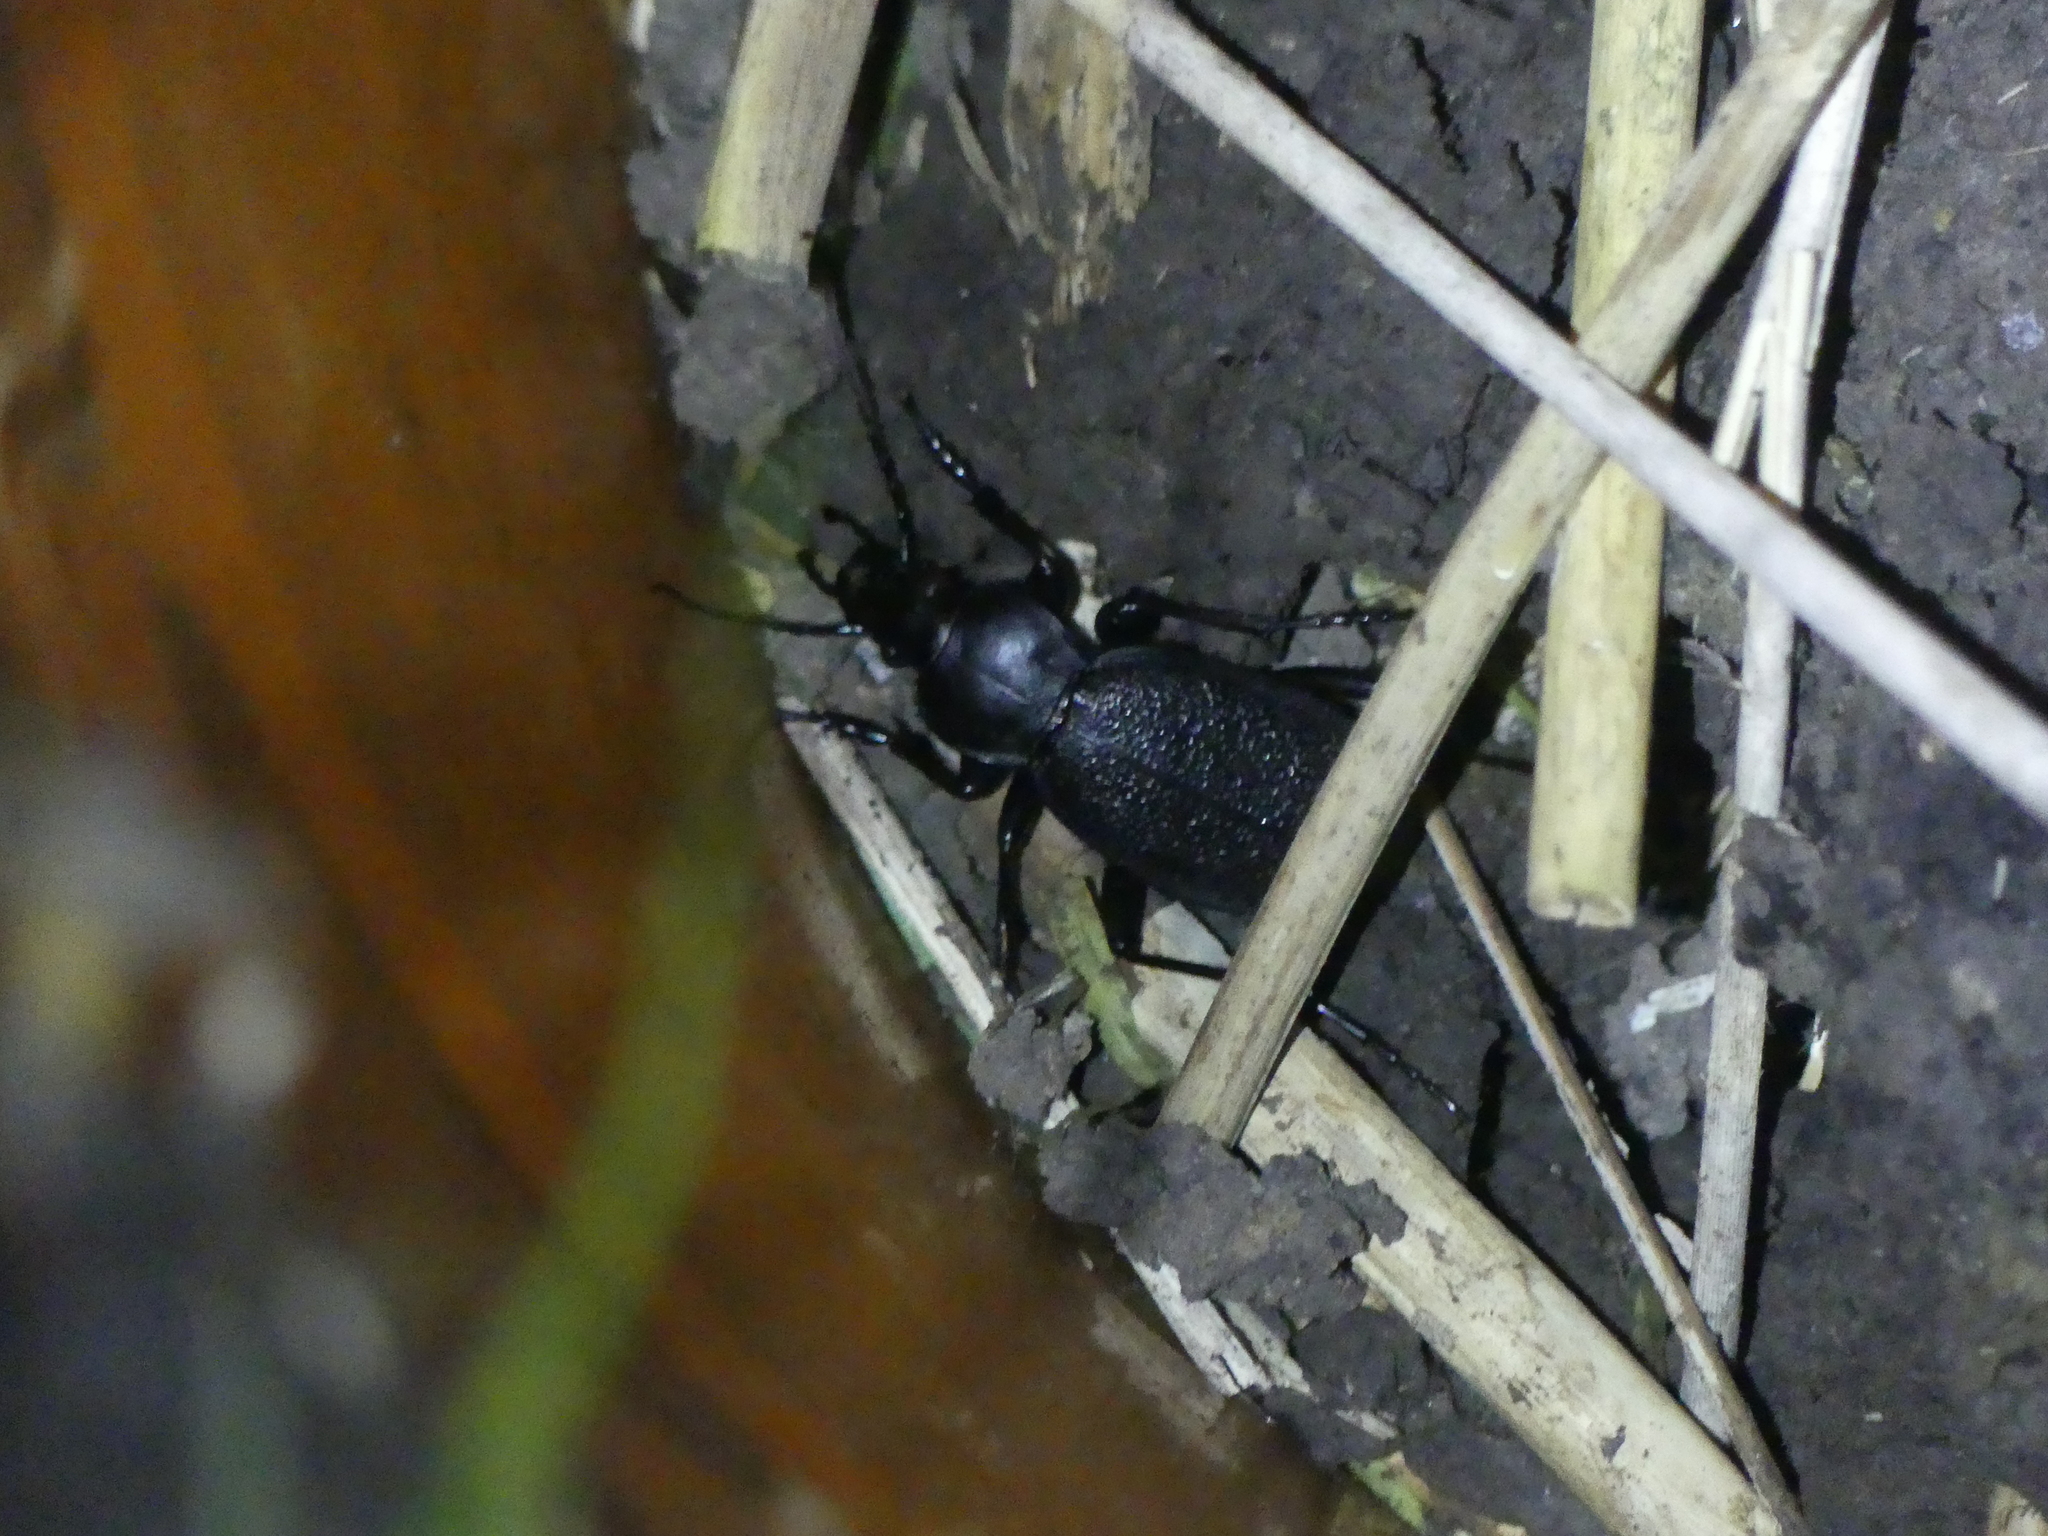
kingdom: Animalia
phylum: Arthropoda
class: Insecta
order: Coleoptera
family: Carabidae
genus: Carabus
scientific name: Carabus coriaceus
